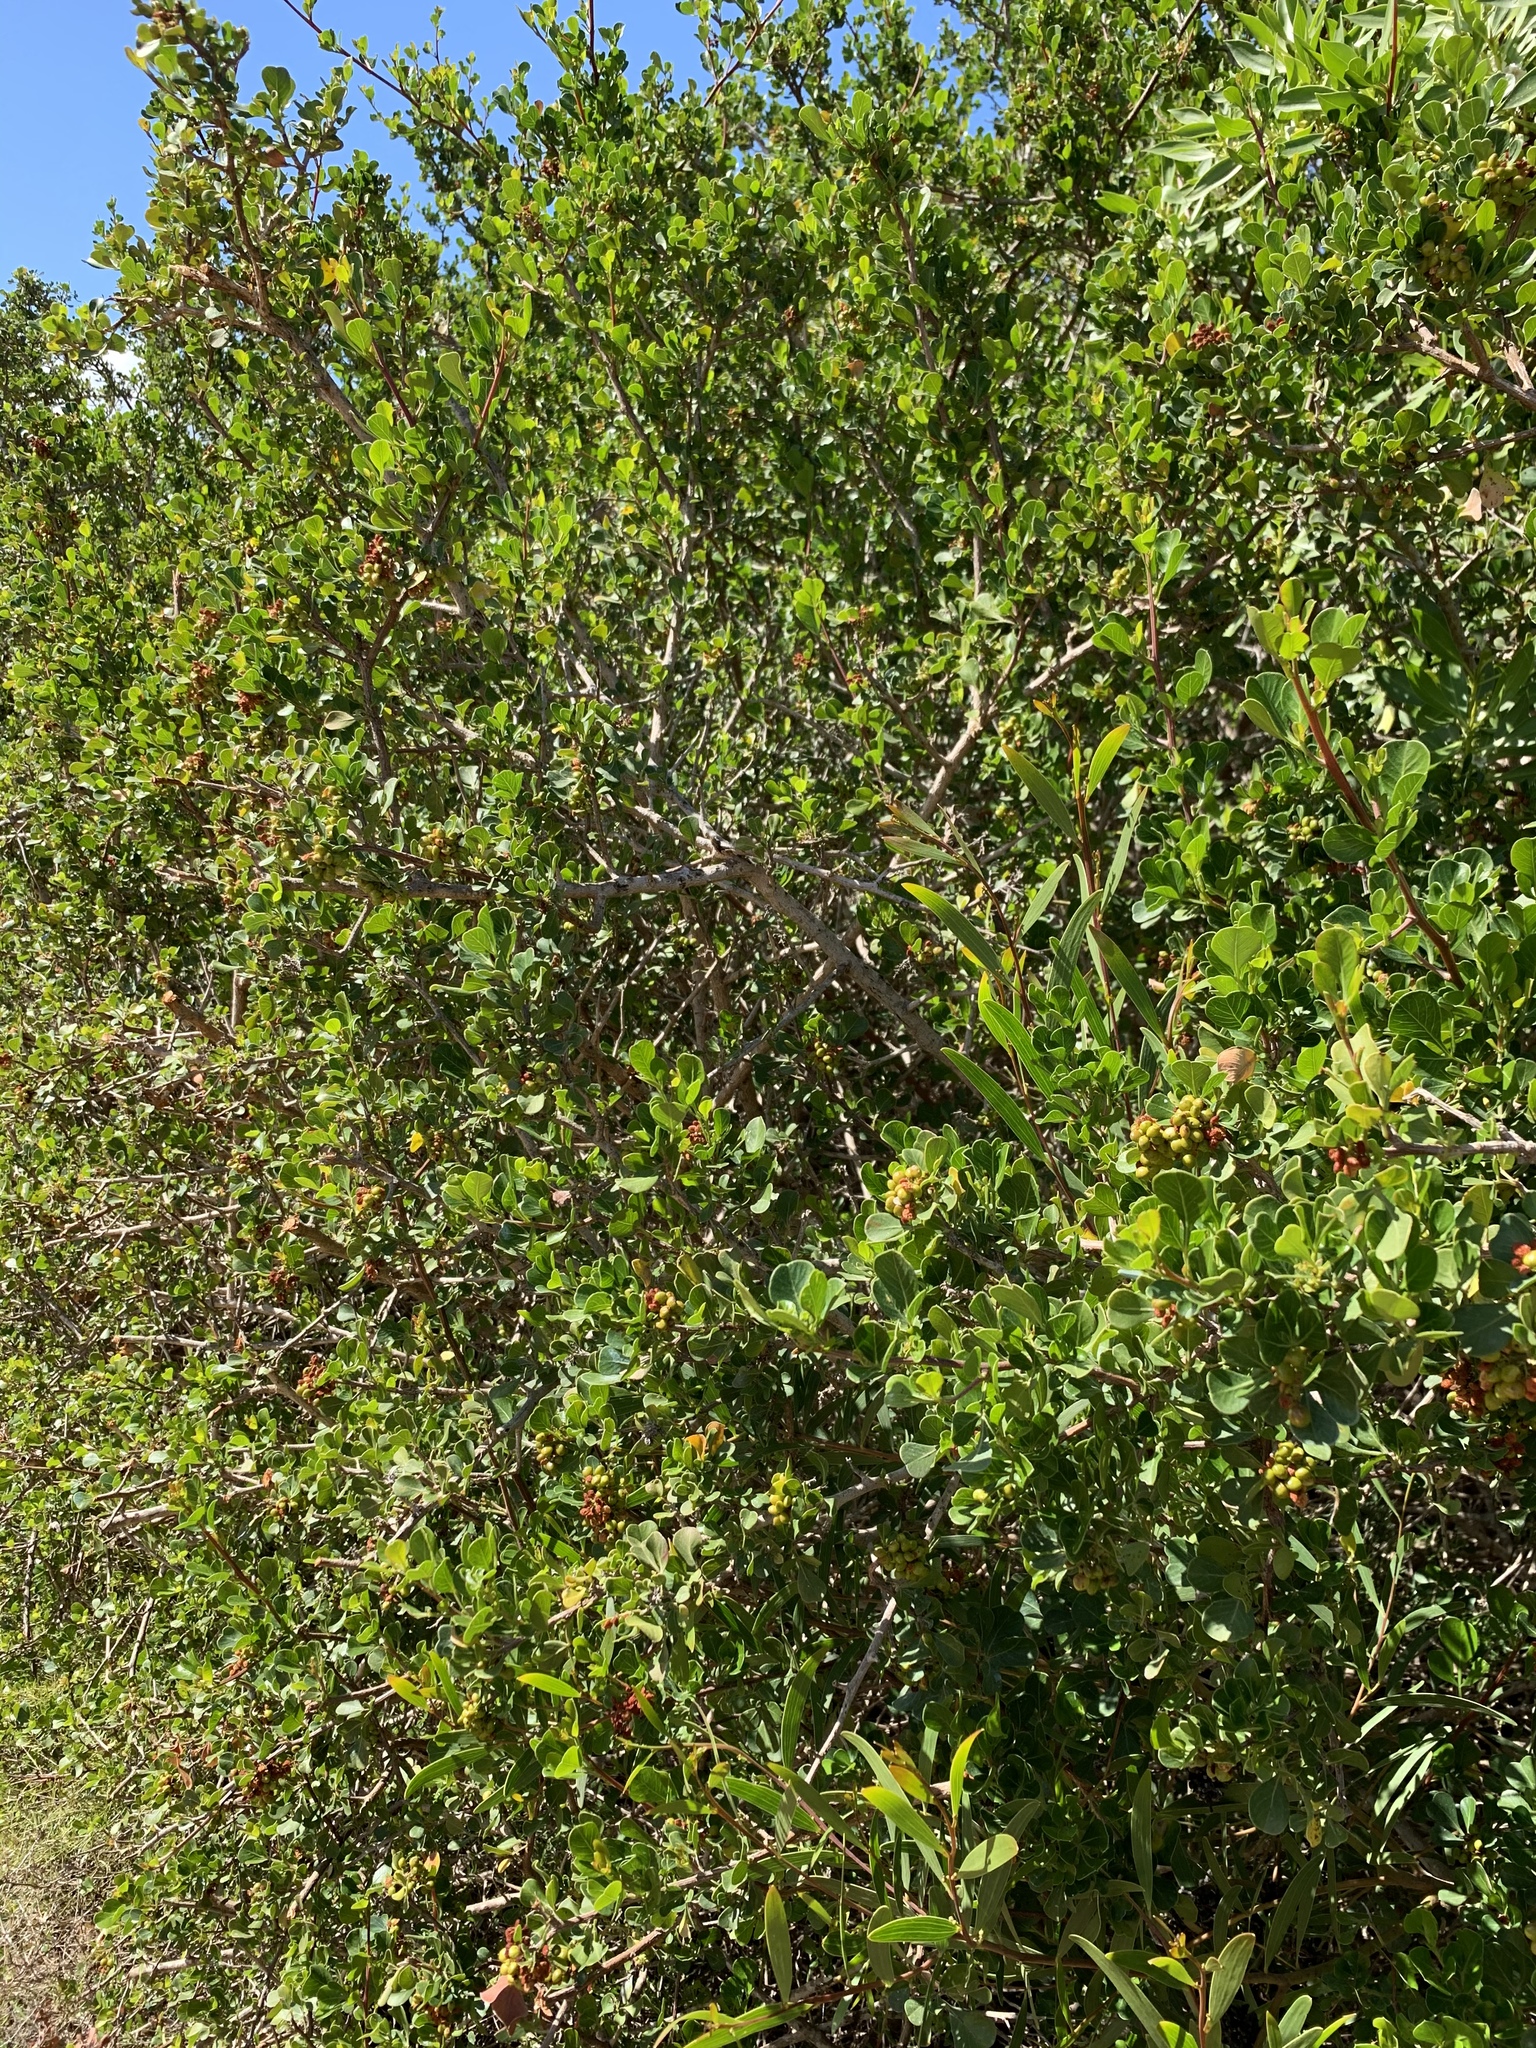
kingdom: Plantae
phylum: Tracheophyta
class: Magnoliopsida
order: Sapindales
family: Anacardiaceae
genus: Searsia
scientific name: Searsia glauca
